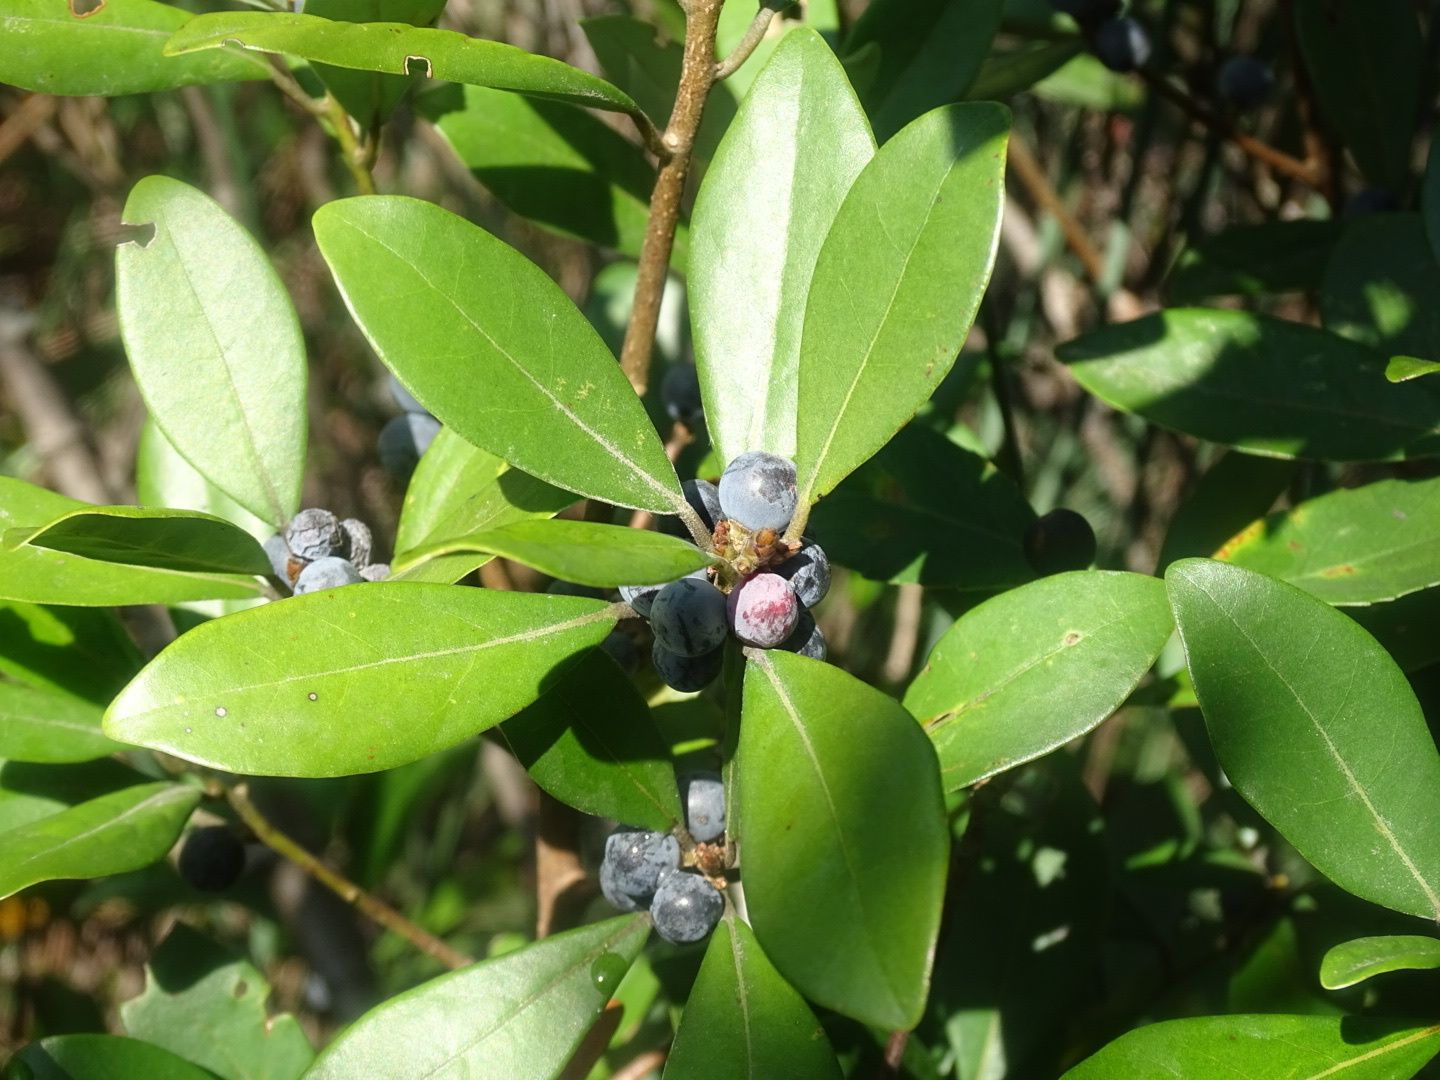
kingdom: Plantae
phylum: Tracheophyta
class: Magnoliopsida
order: Laurales
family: Lauraceae
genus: Litsea
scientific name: Litsea rotundifolia
